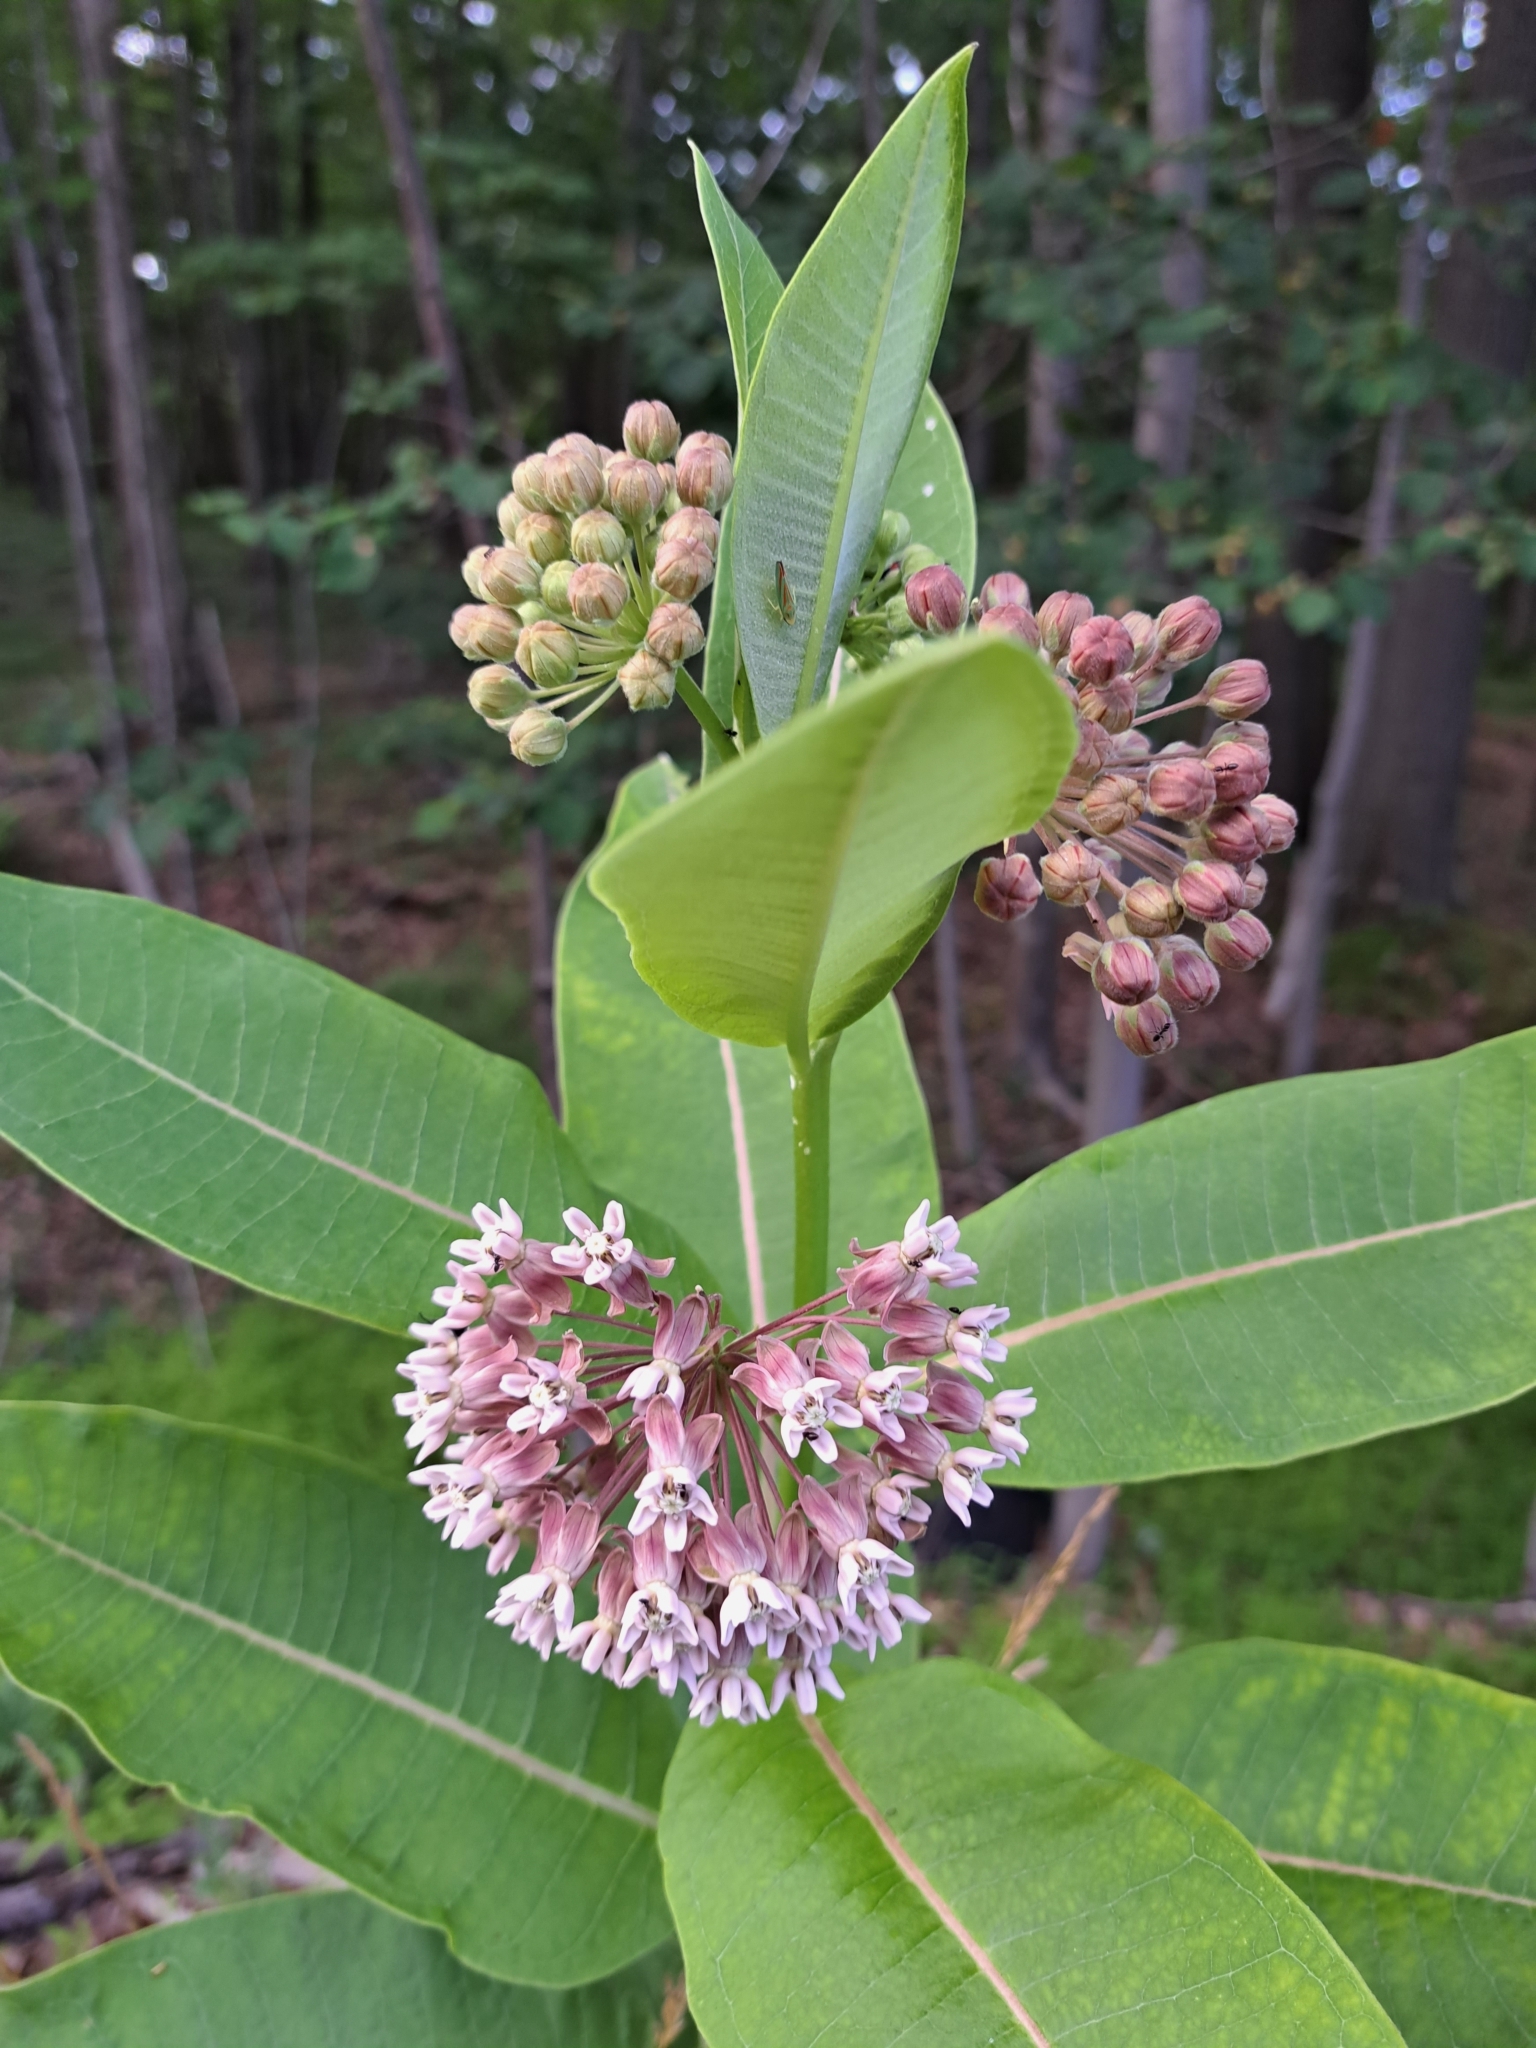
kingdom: Plantae
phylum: Tracheophyta
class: Magnoliopsida
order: Gentianales
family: Apocynaceae
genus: Asclepias
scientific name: Asclepias syriaca
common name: Common milkweed
